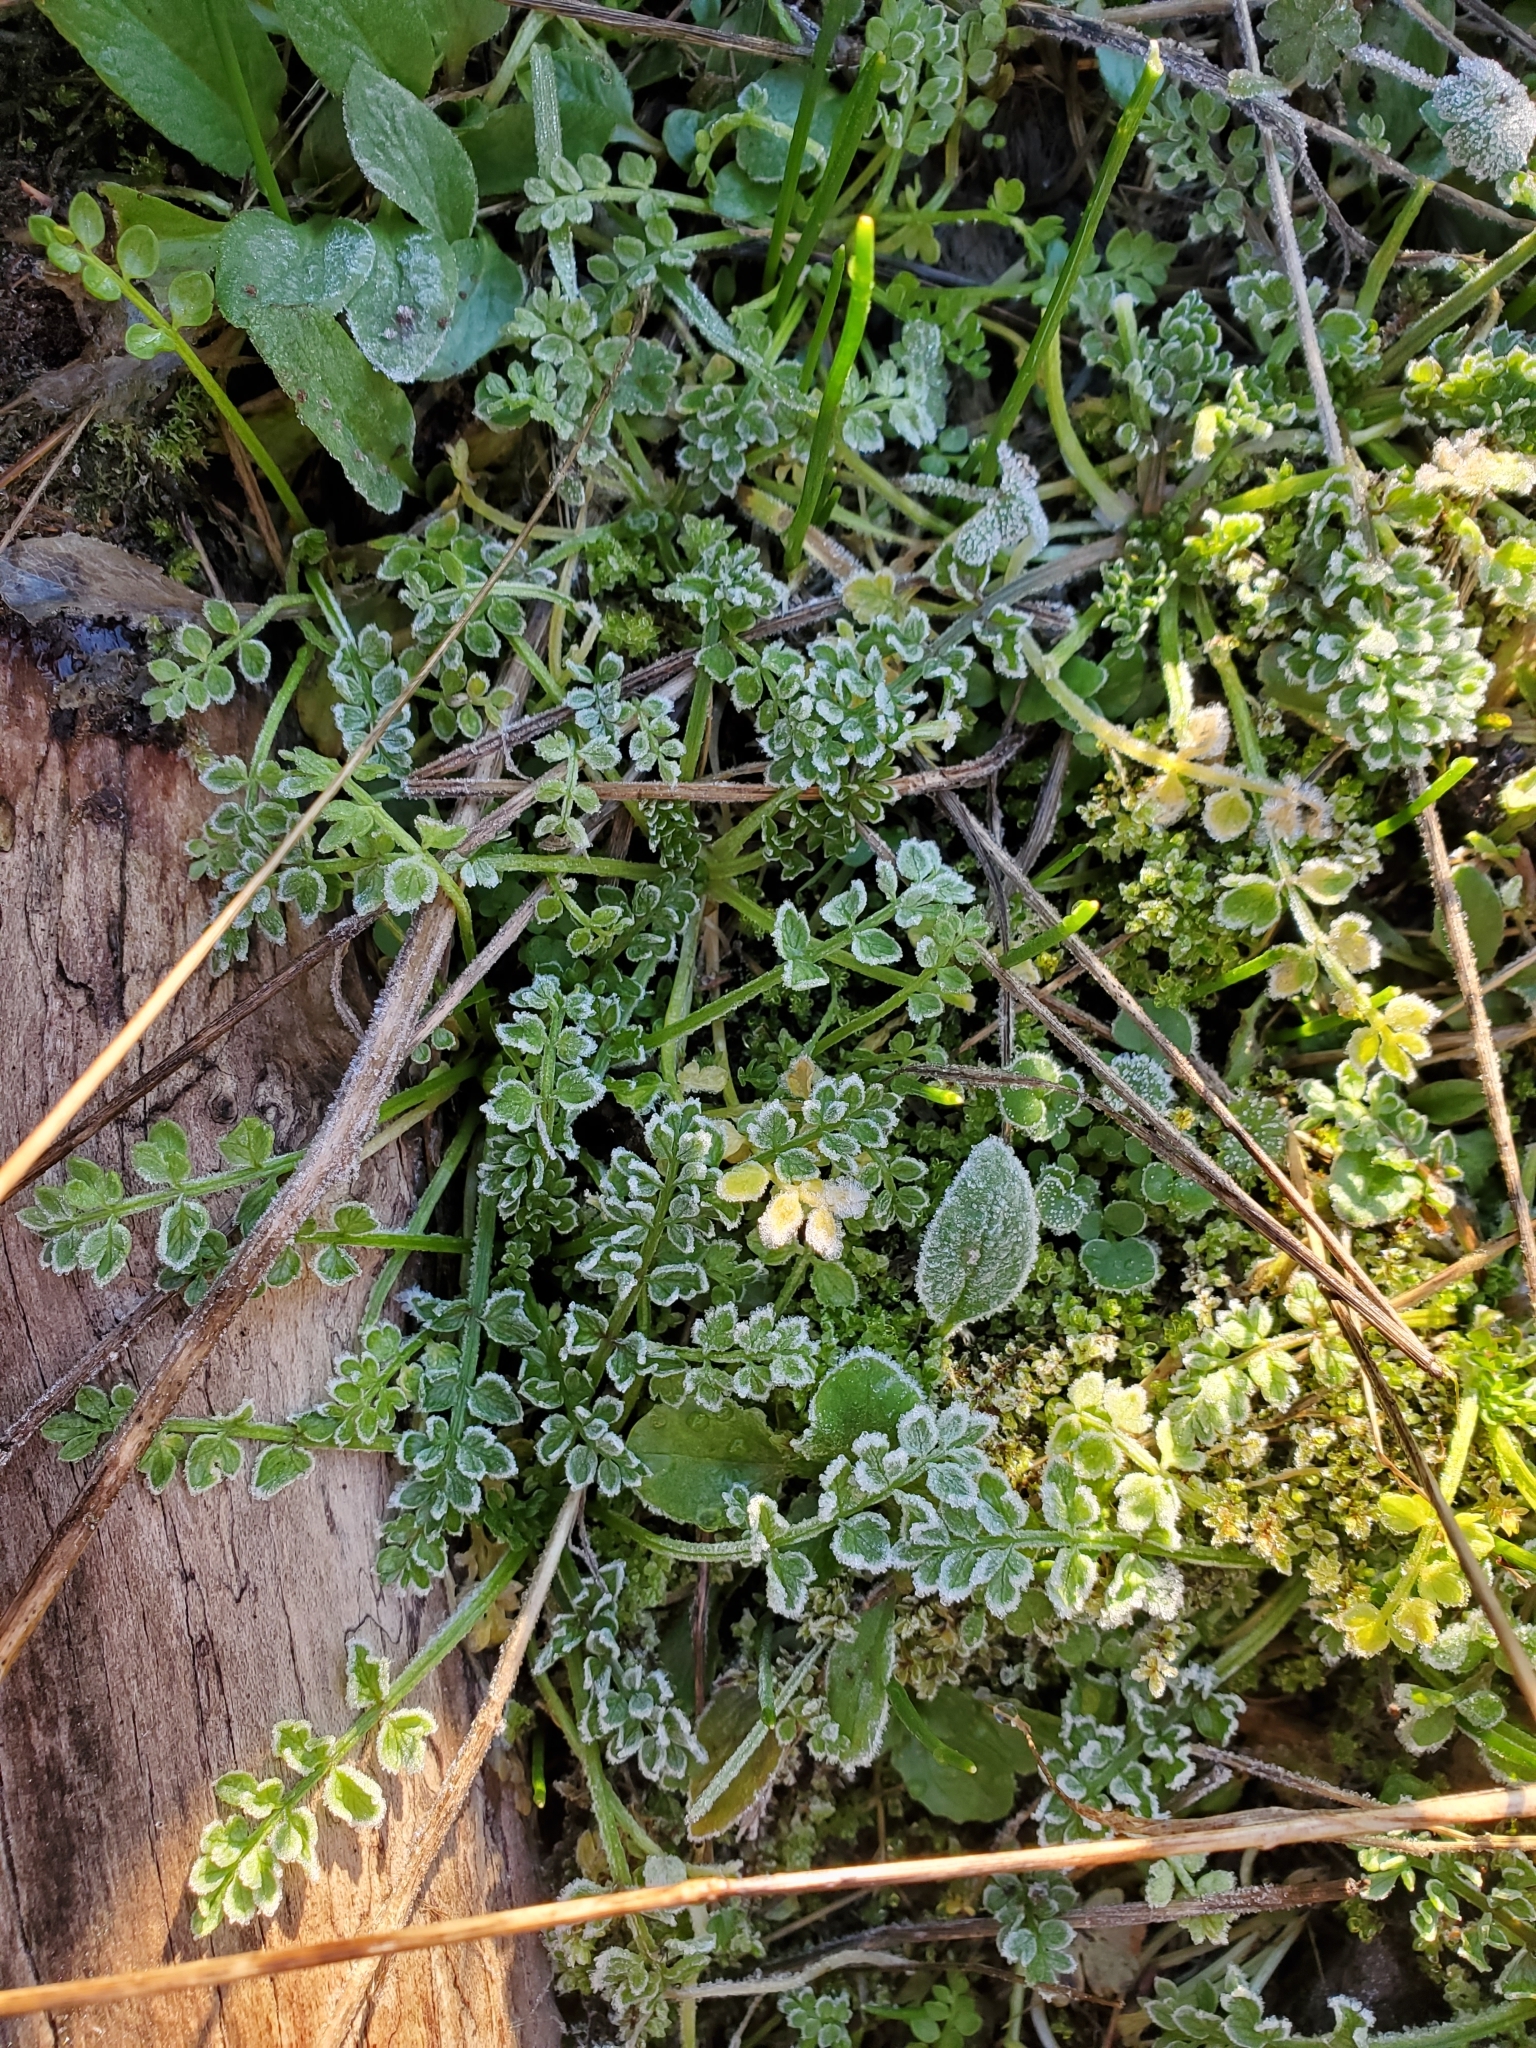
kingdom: Plantae
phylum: Tracheophyta
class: Magnoliopsida
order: Brassicales
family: Limnanthaceae
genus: Limnanthes
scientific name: Limnanthes macounii
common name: Macoun's meadowfoam
